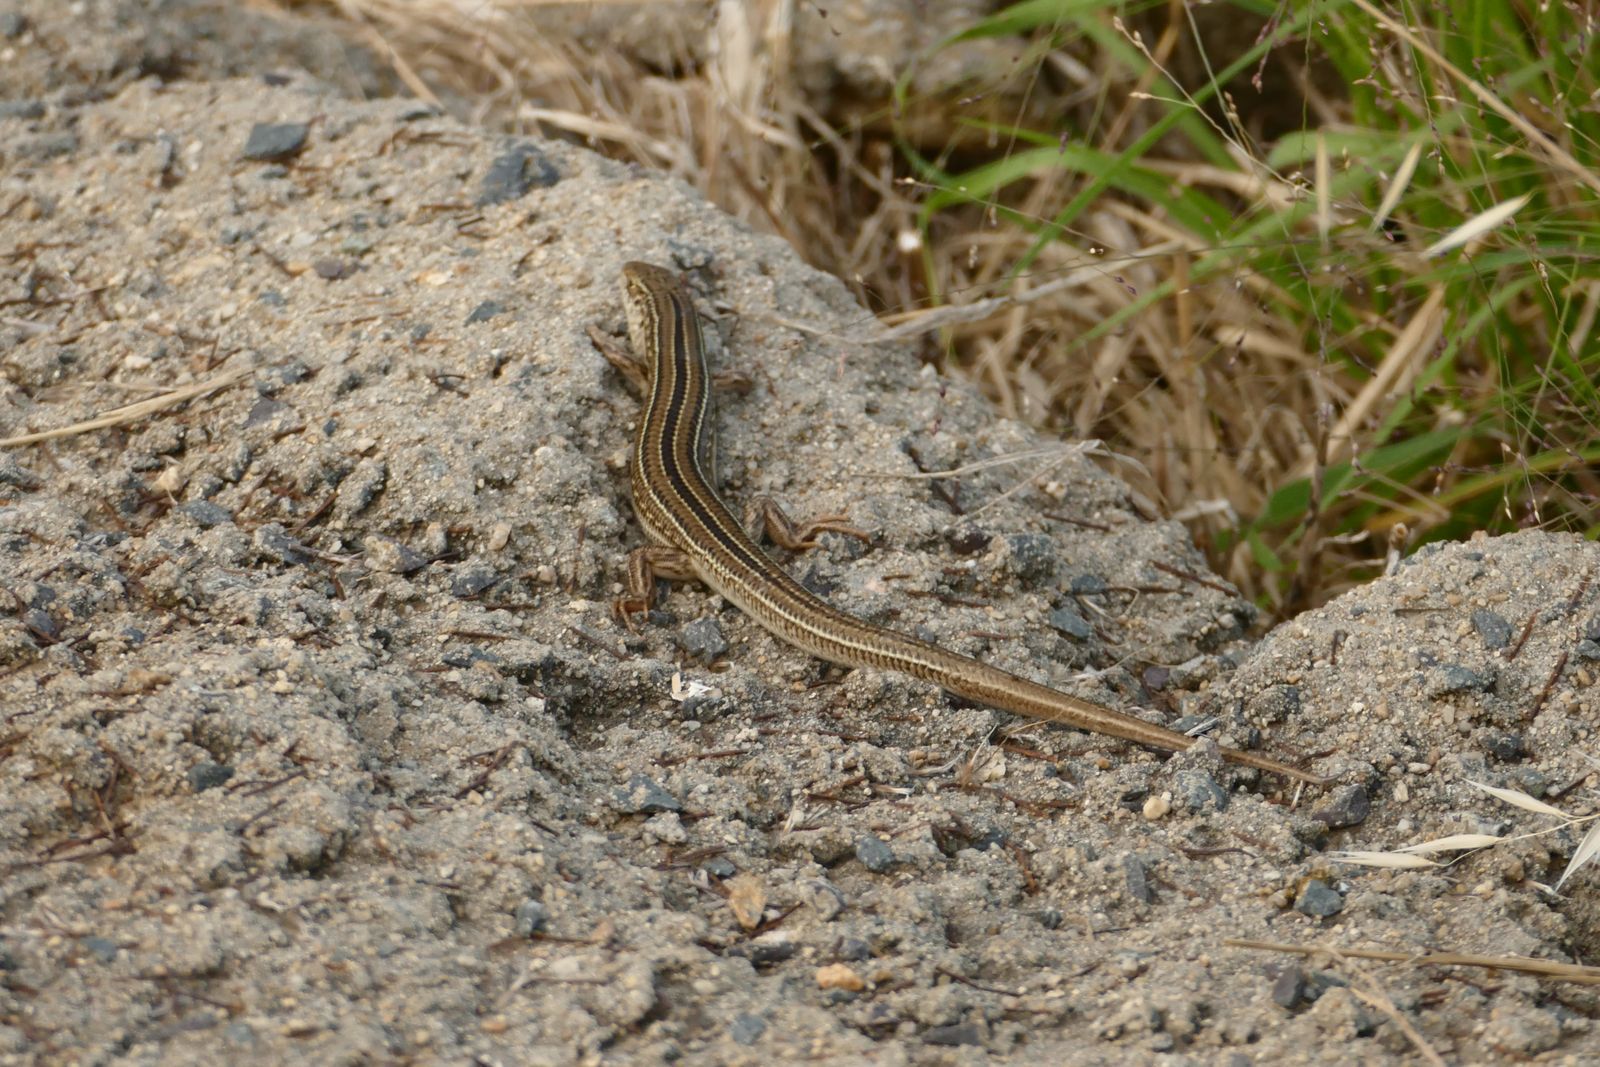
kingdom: Animalia
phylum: Chordata
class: Squamata
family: Scincidae
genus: Ctenotus
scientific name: Ctenotus robustus
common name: Robust ctenotus
